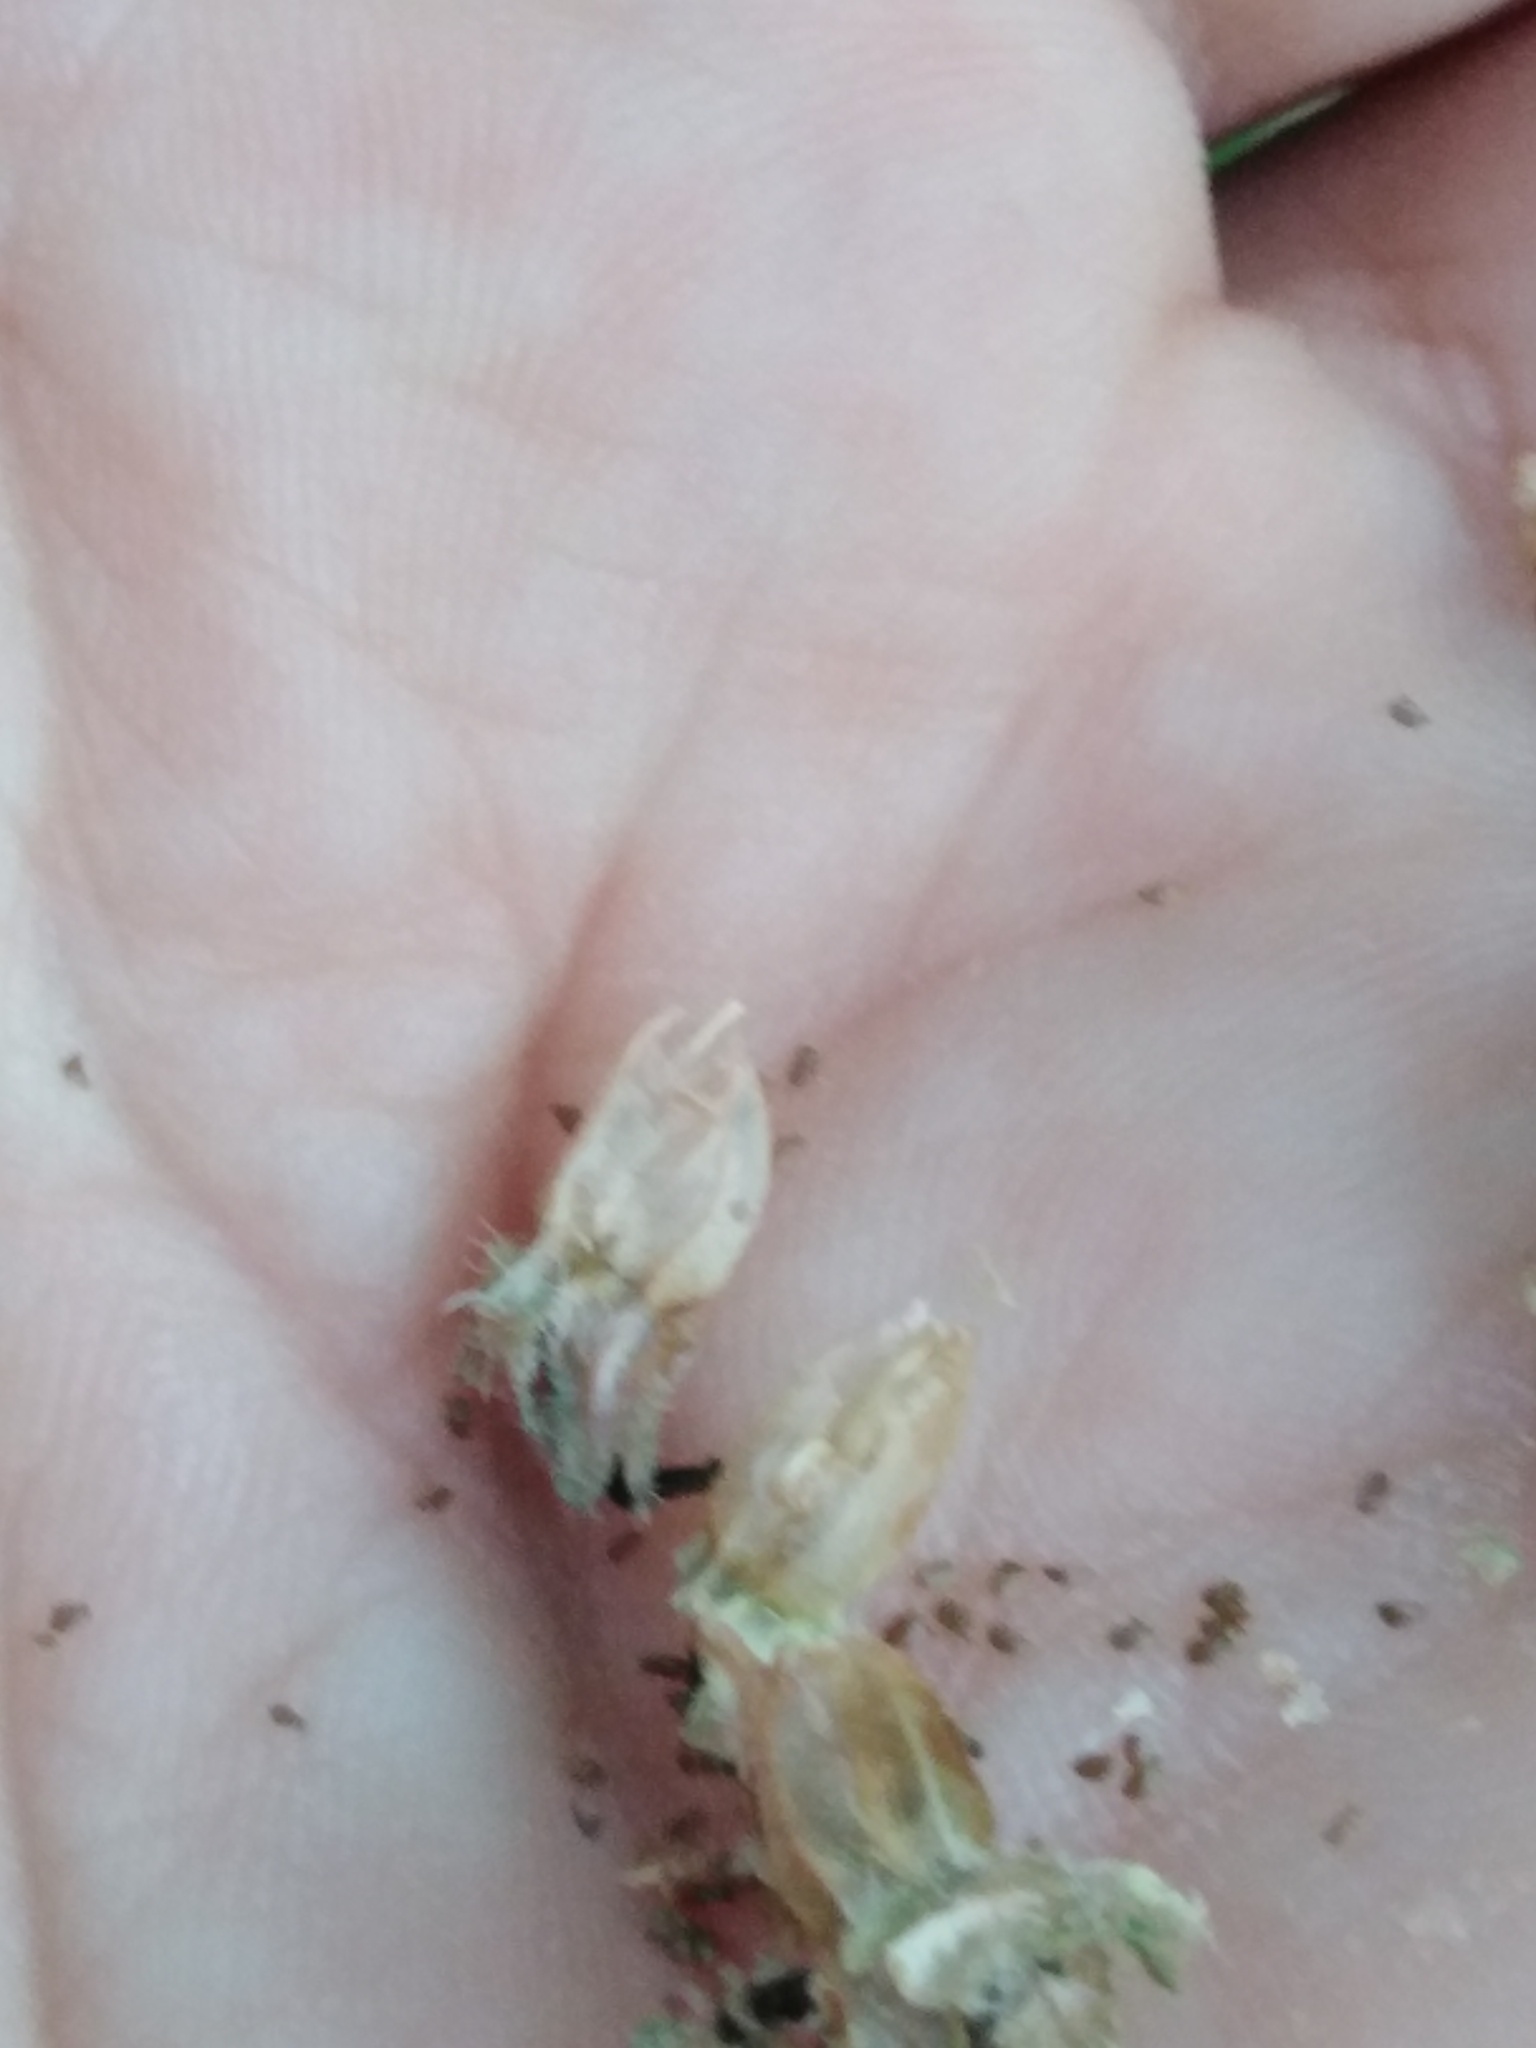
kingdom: Plantae
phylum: Tracheophyta
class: Magnoliopsida
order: Asterales
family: Campanulaceae
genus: Campanula
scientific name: Campanula cervicaria
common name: Bristly bellflower
